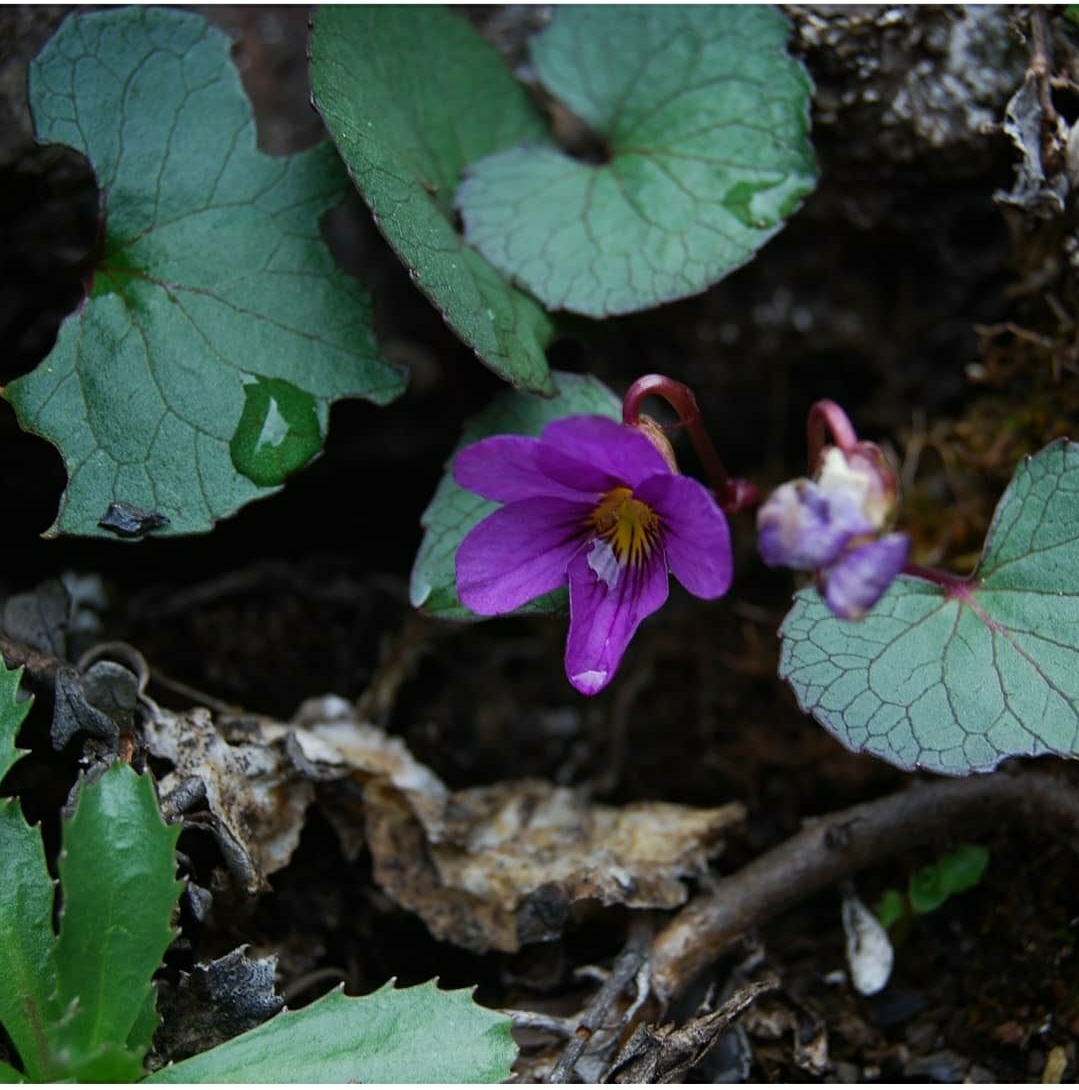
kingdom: Plantae
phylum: Tracheophyta
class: Magnoliopsida
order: Malpighiales
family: Violaceae
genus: Viola
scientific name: Viola flettii
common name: Rock violet
